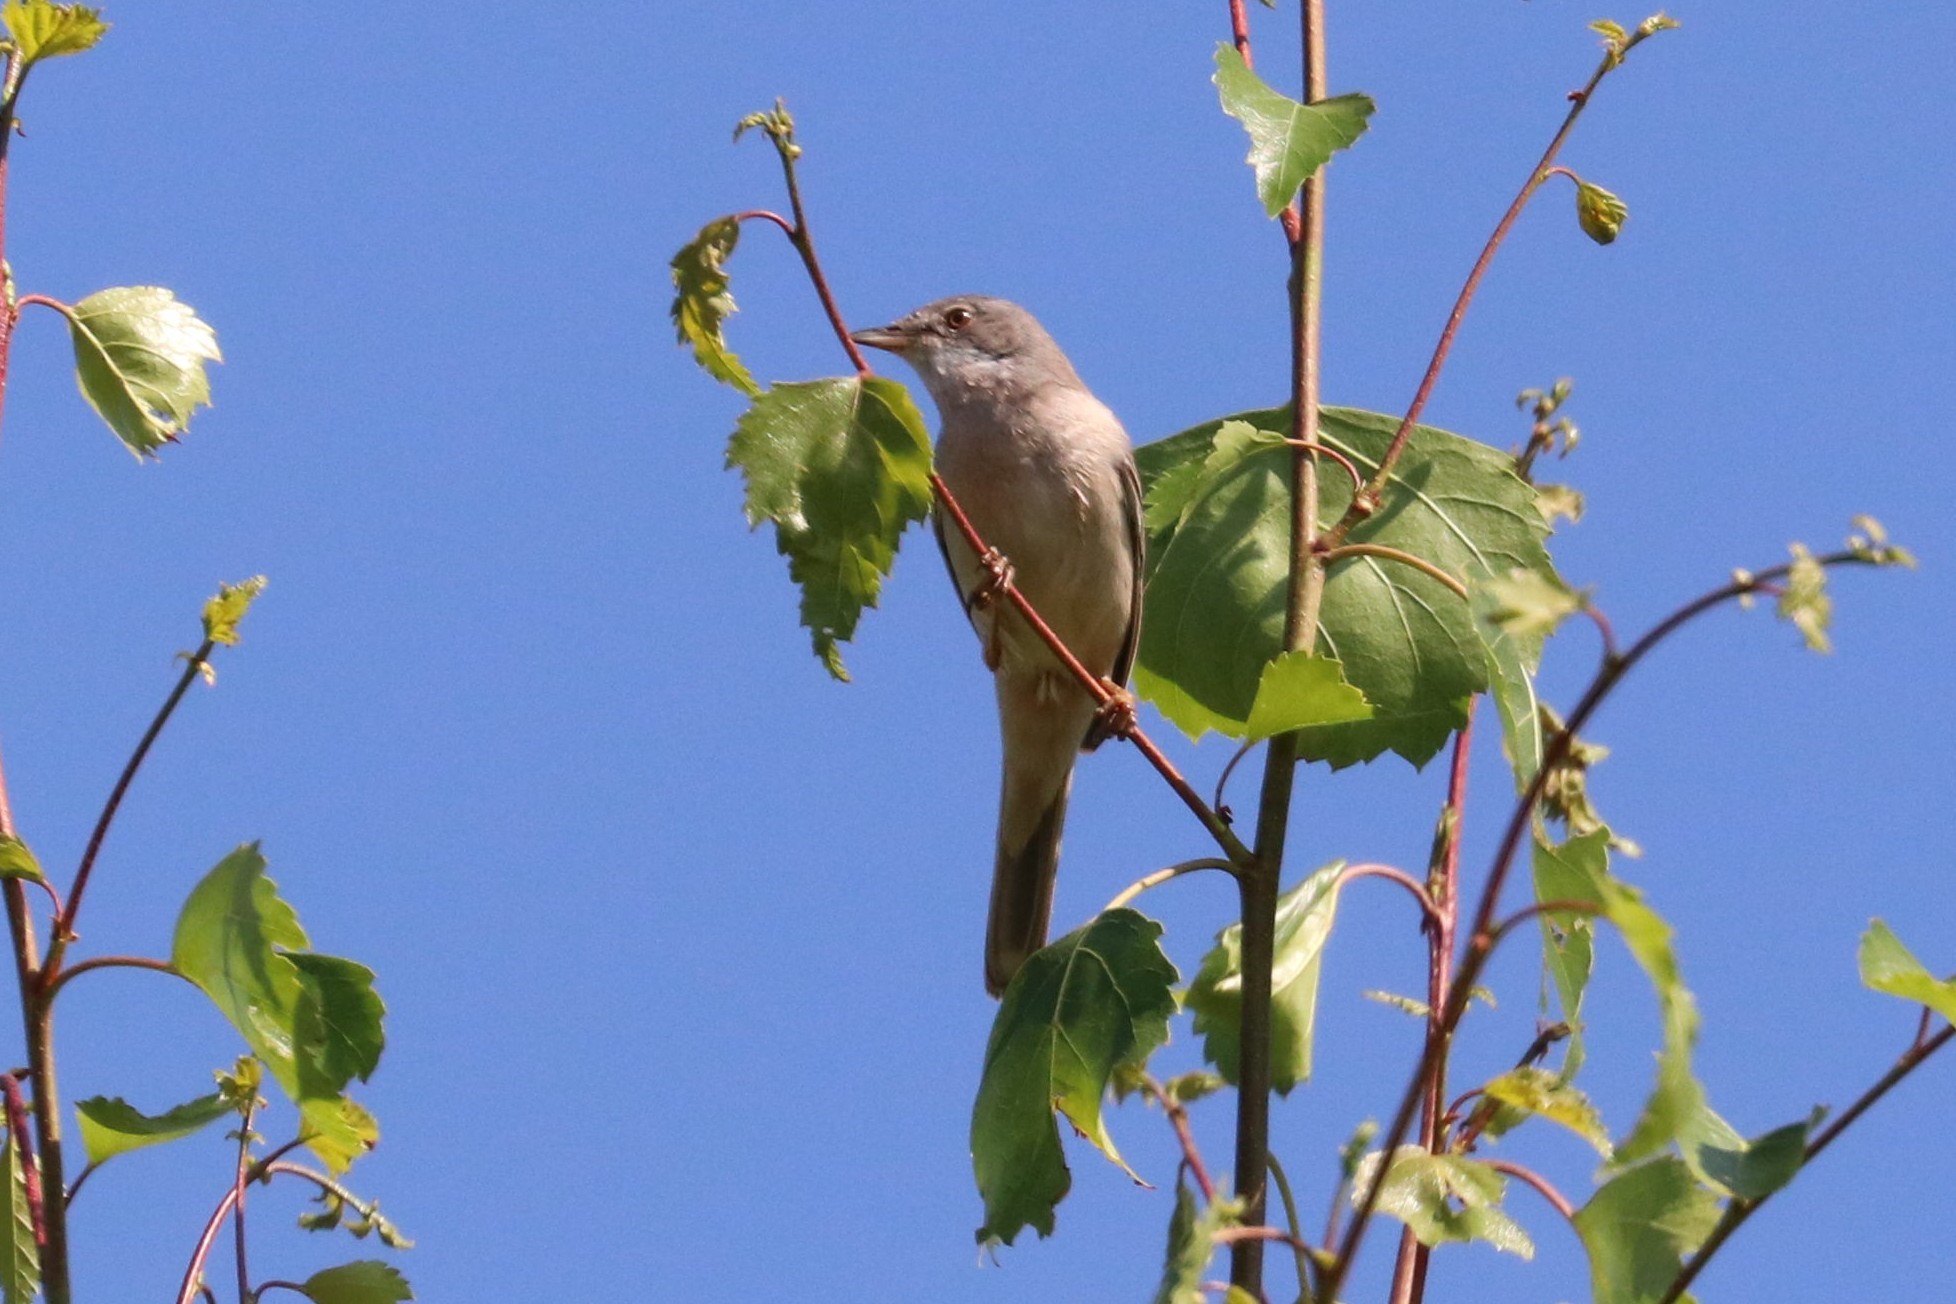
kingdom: Animalia
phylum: Chordata
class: Aves
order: Passeriformes
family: Sylviidae
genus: Sylvia
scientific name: Sylvia communis
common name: Common whitethroat
